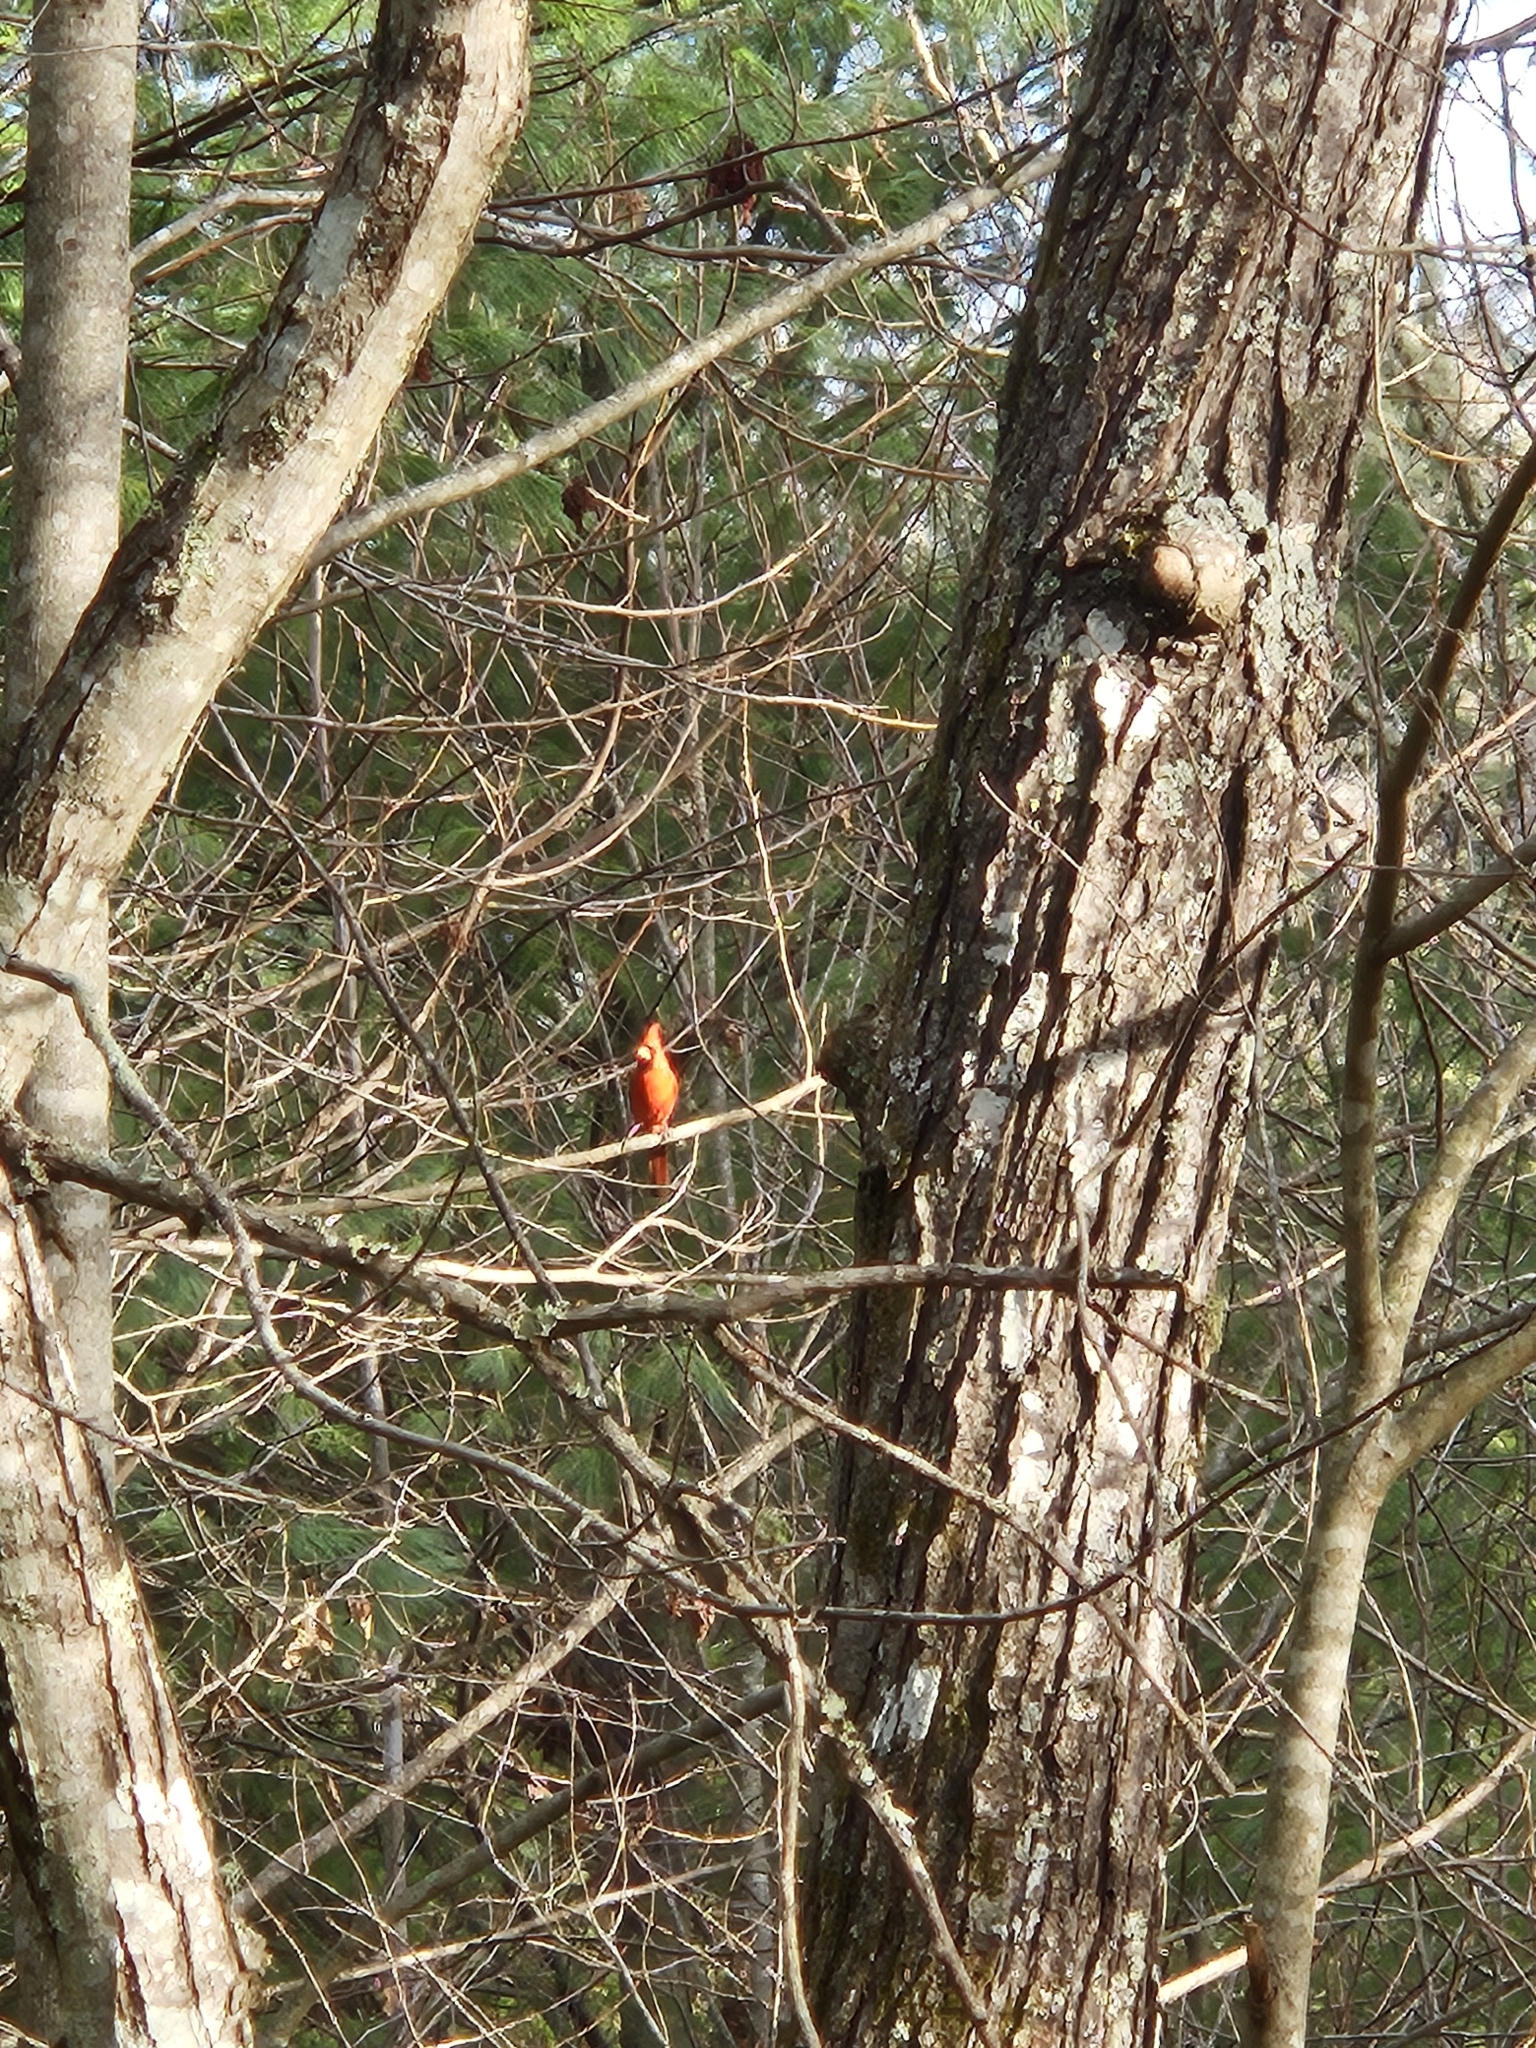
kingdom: Animalia
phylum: Chordata
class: Aves
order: Passeriformes
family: Cardinalidae
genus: Cardinalis
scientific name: Cardinalis cardinalis
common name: Northern cardinal
